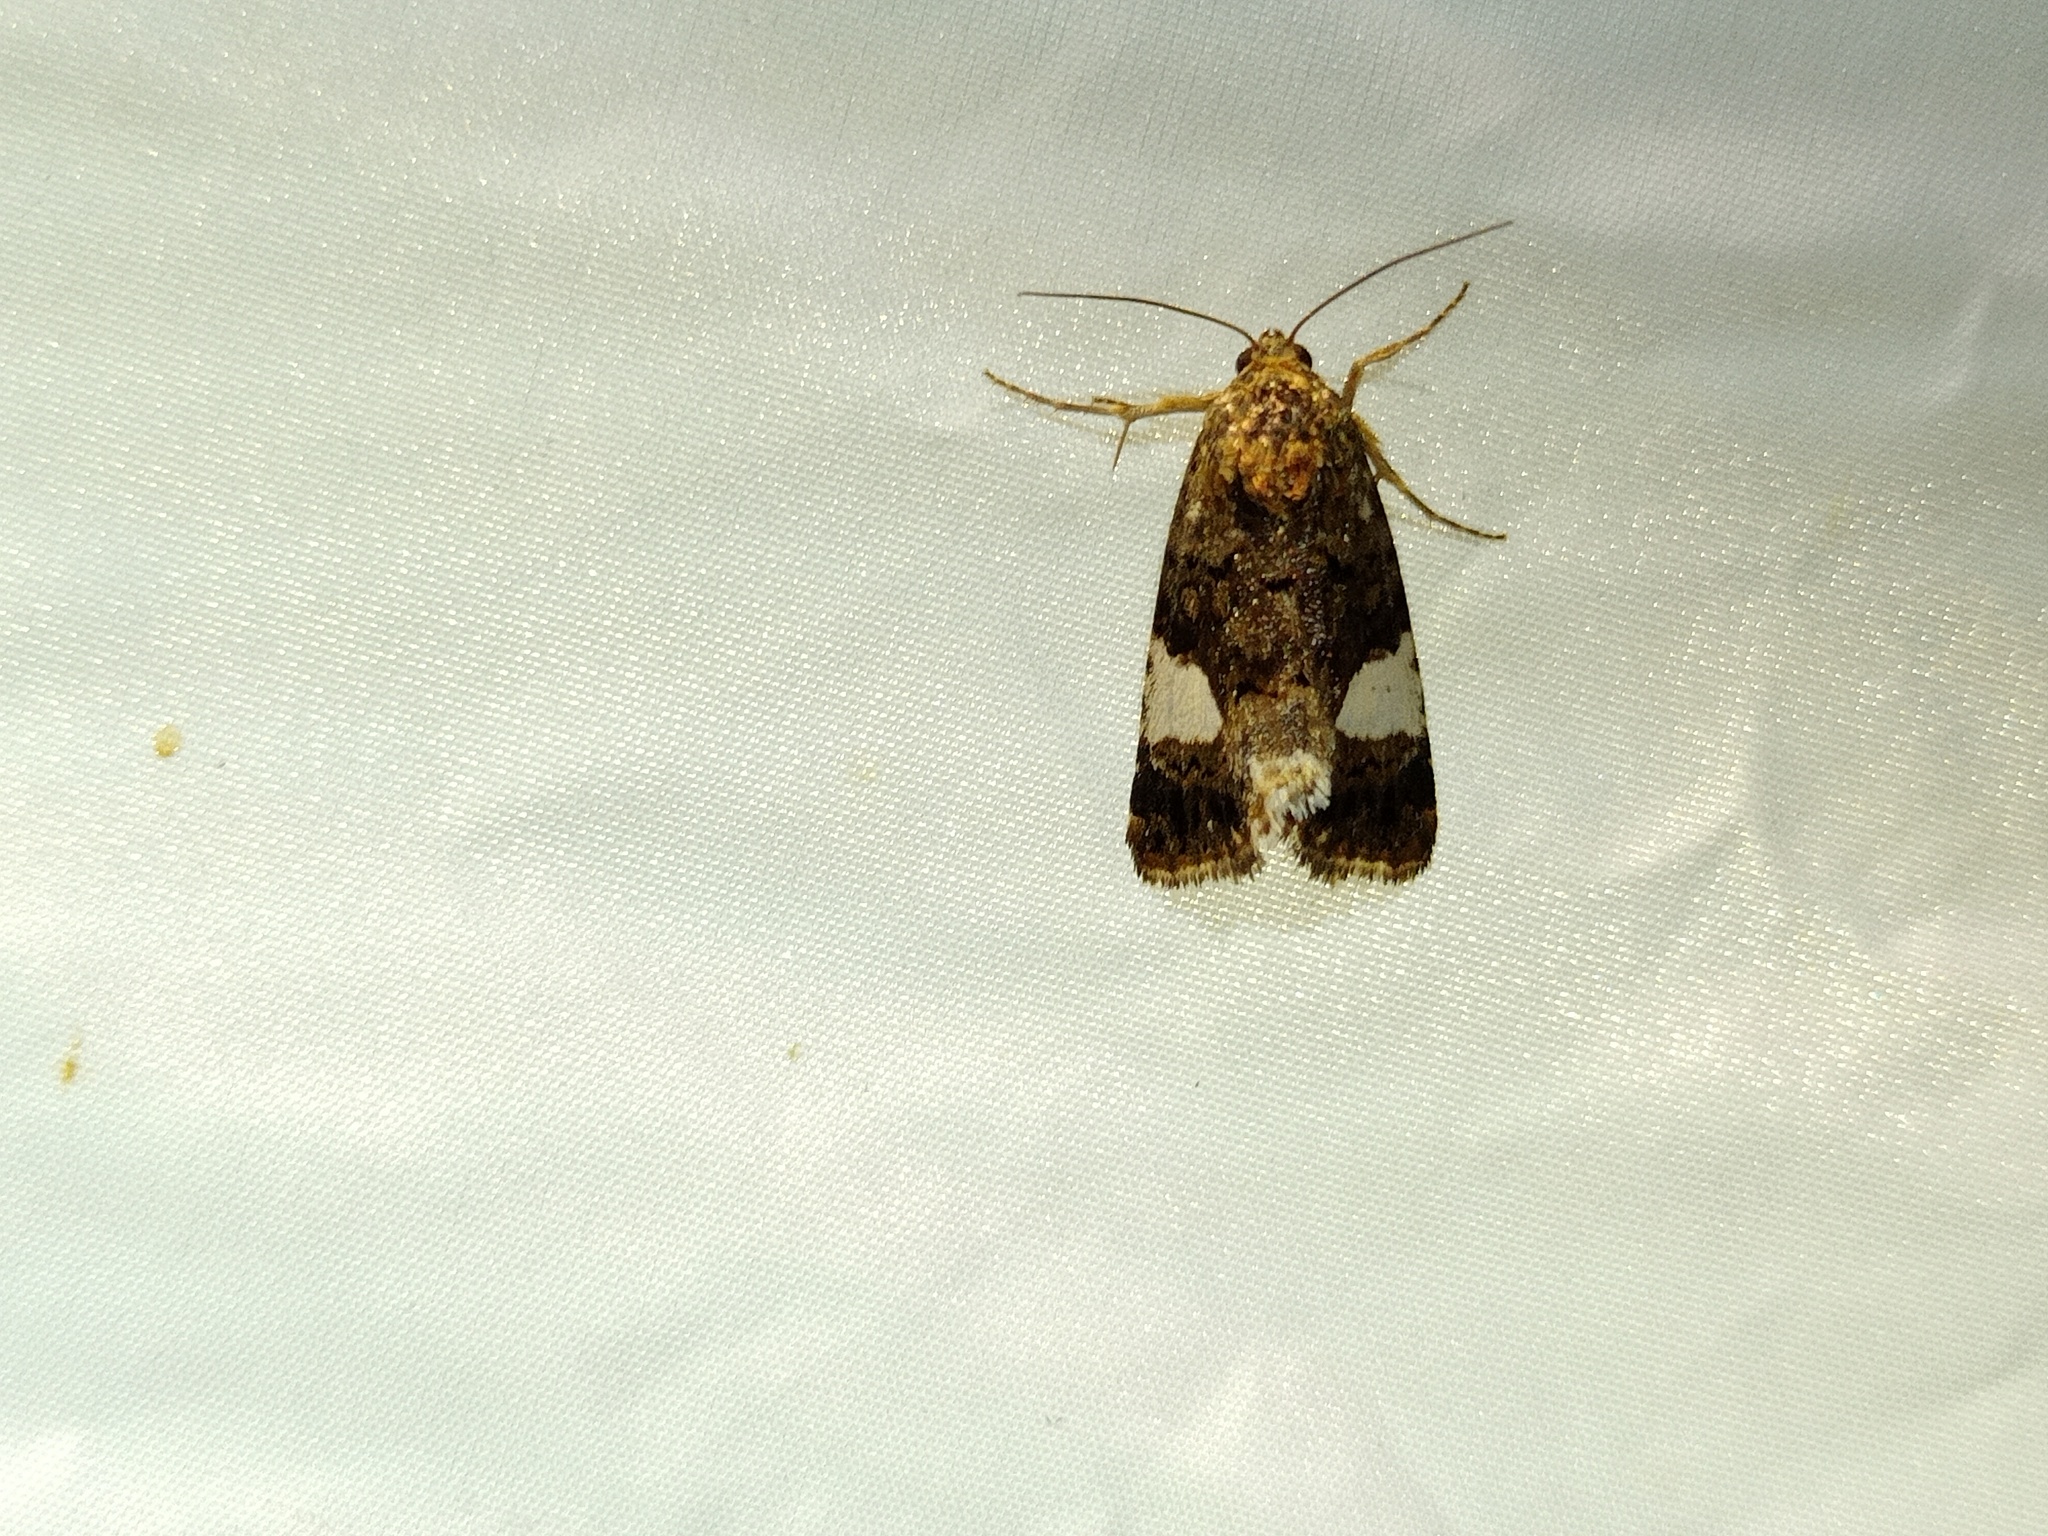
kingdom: Animalia
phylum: Arthropoda
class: Insecta
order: Lepidoptera
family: Erebidae
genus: Tyta
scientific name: Tyta luctuosa
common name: Four-spotted
